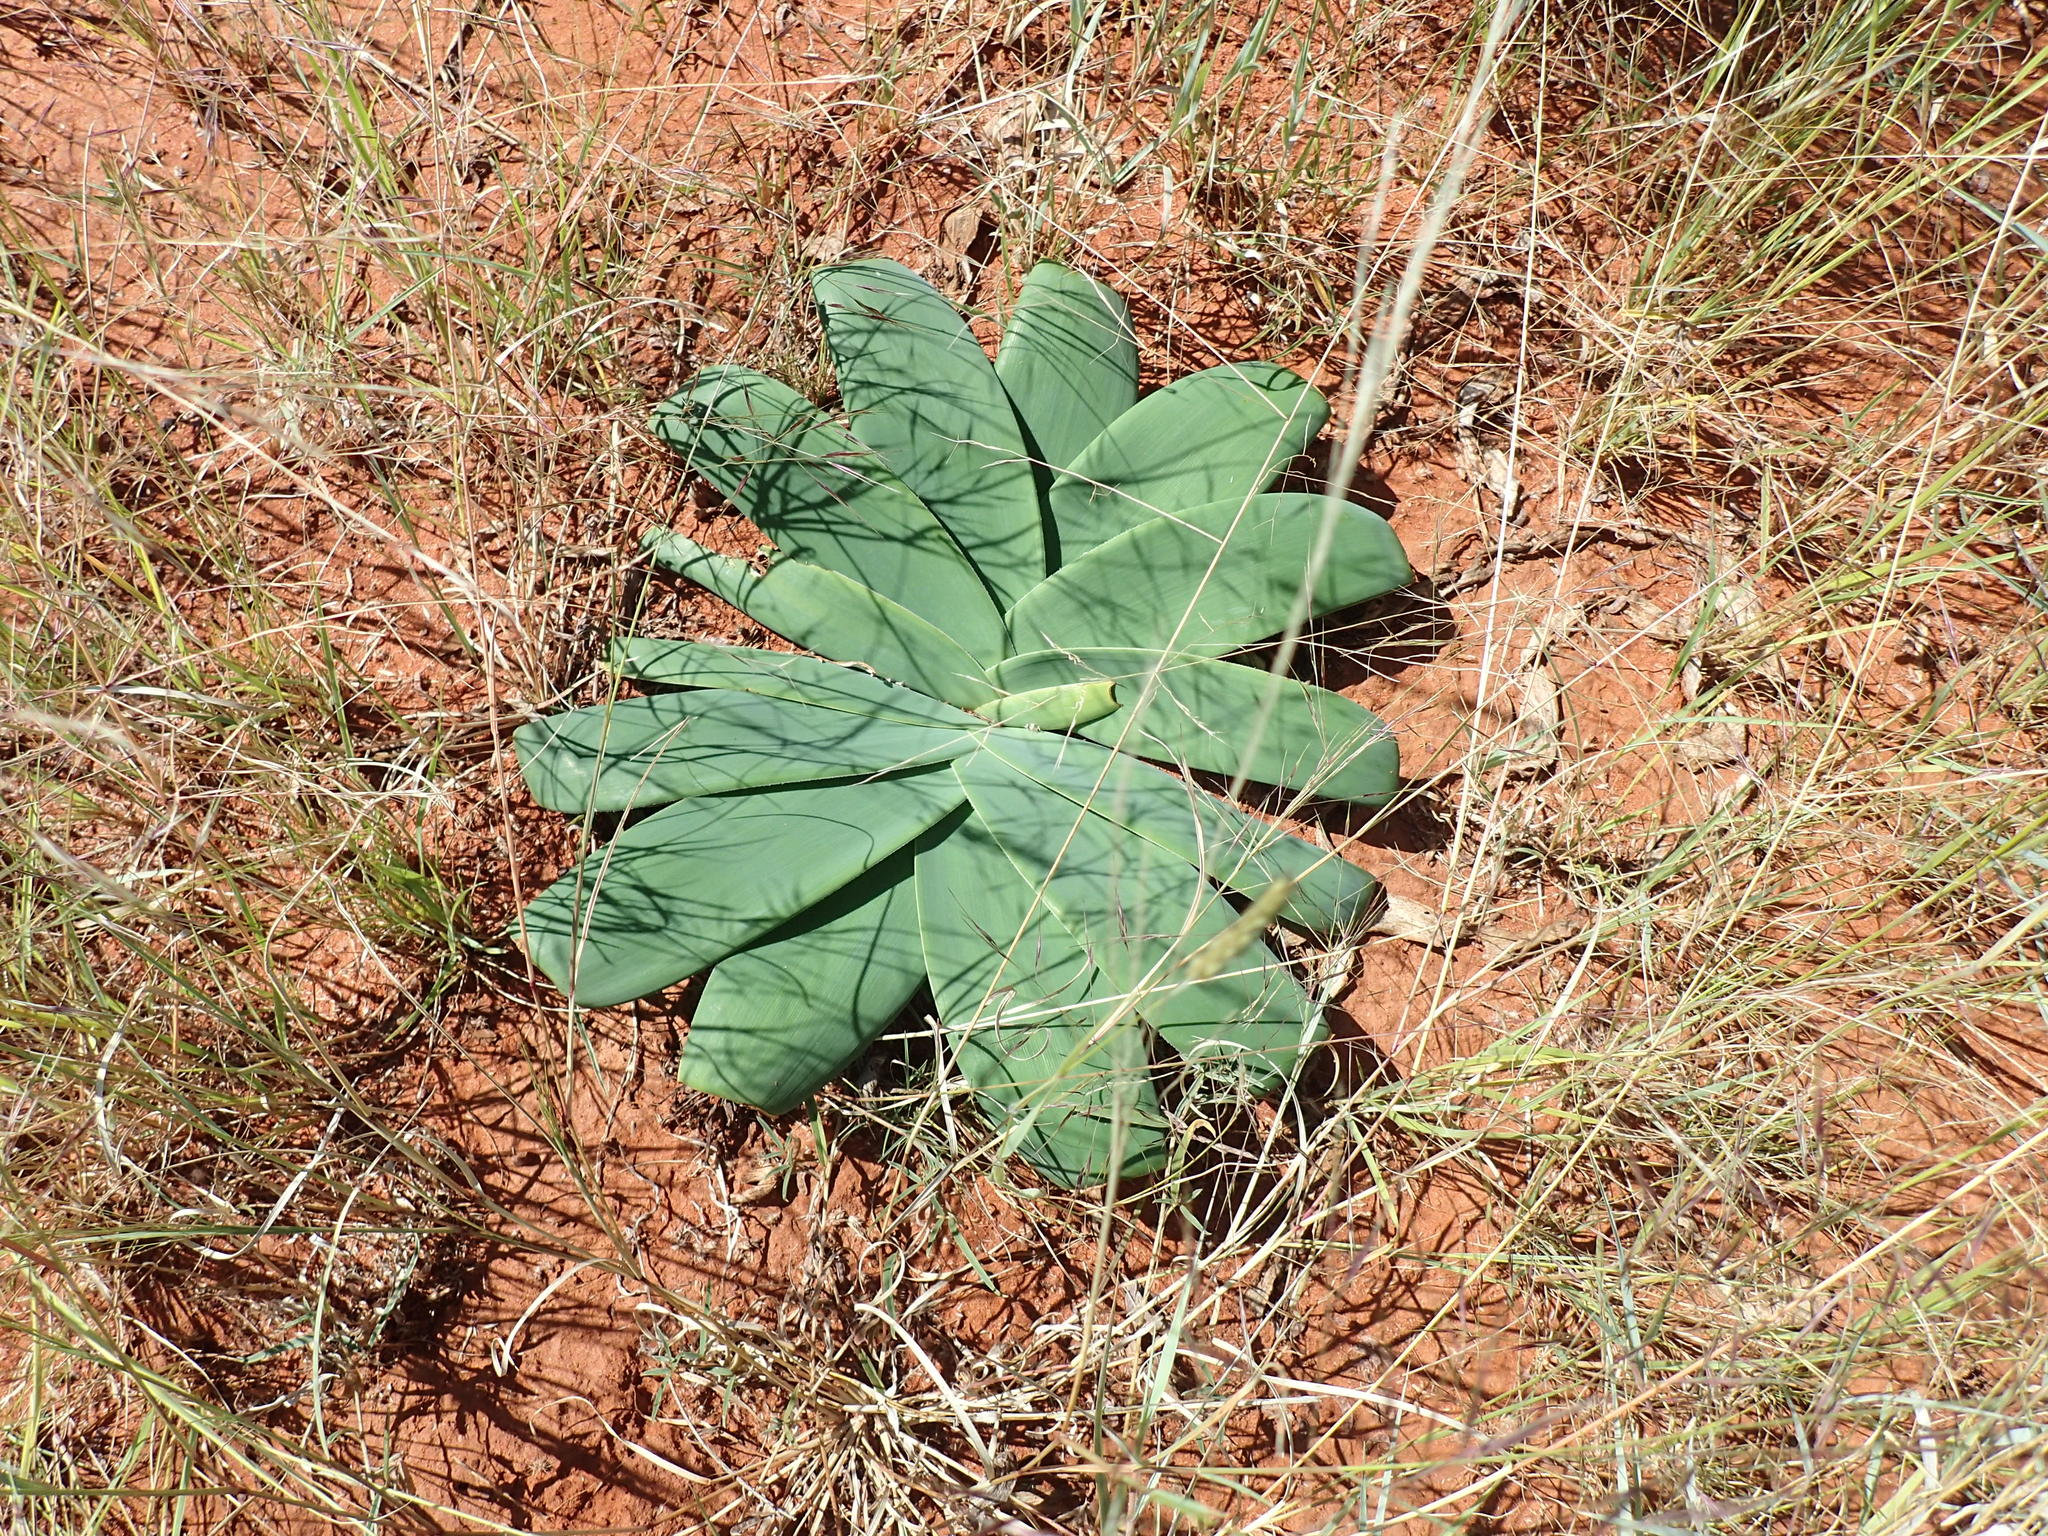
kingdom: Plantae
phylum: Tracheophyta
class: Liliopsida
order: Asparagales
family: Amaryllidaceae
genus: Ammocharis
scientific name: Ammocharis coranica
